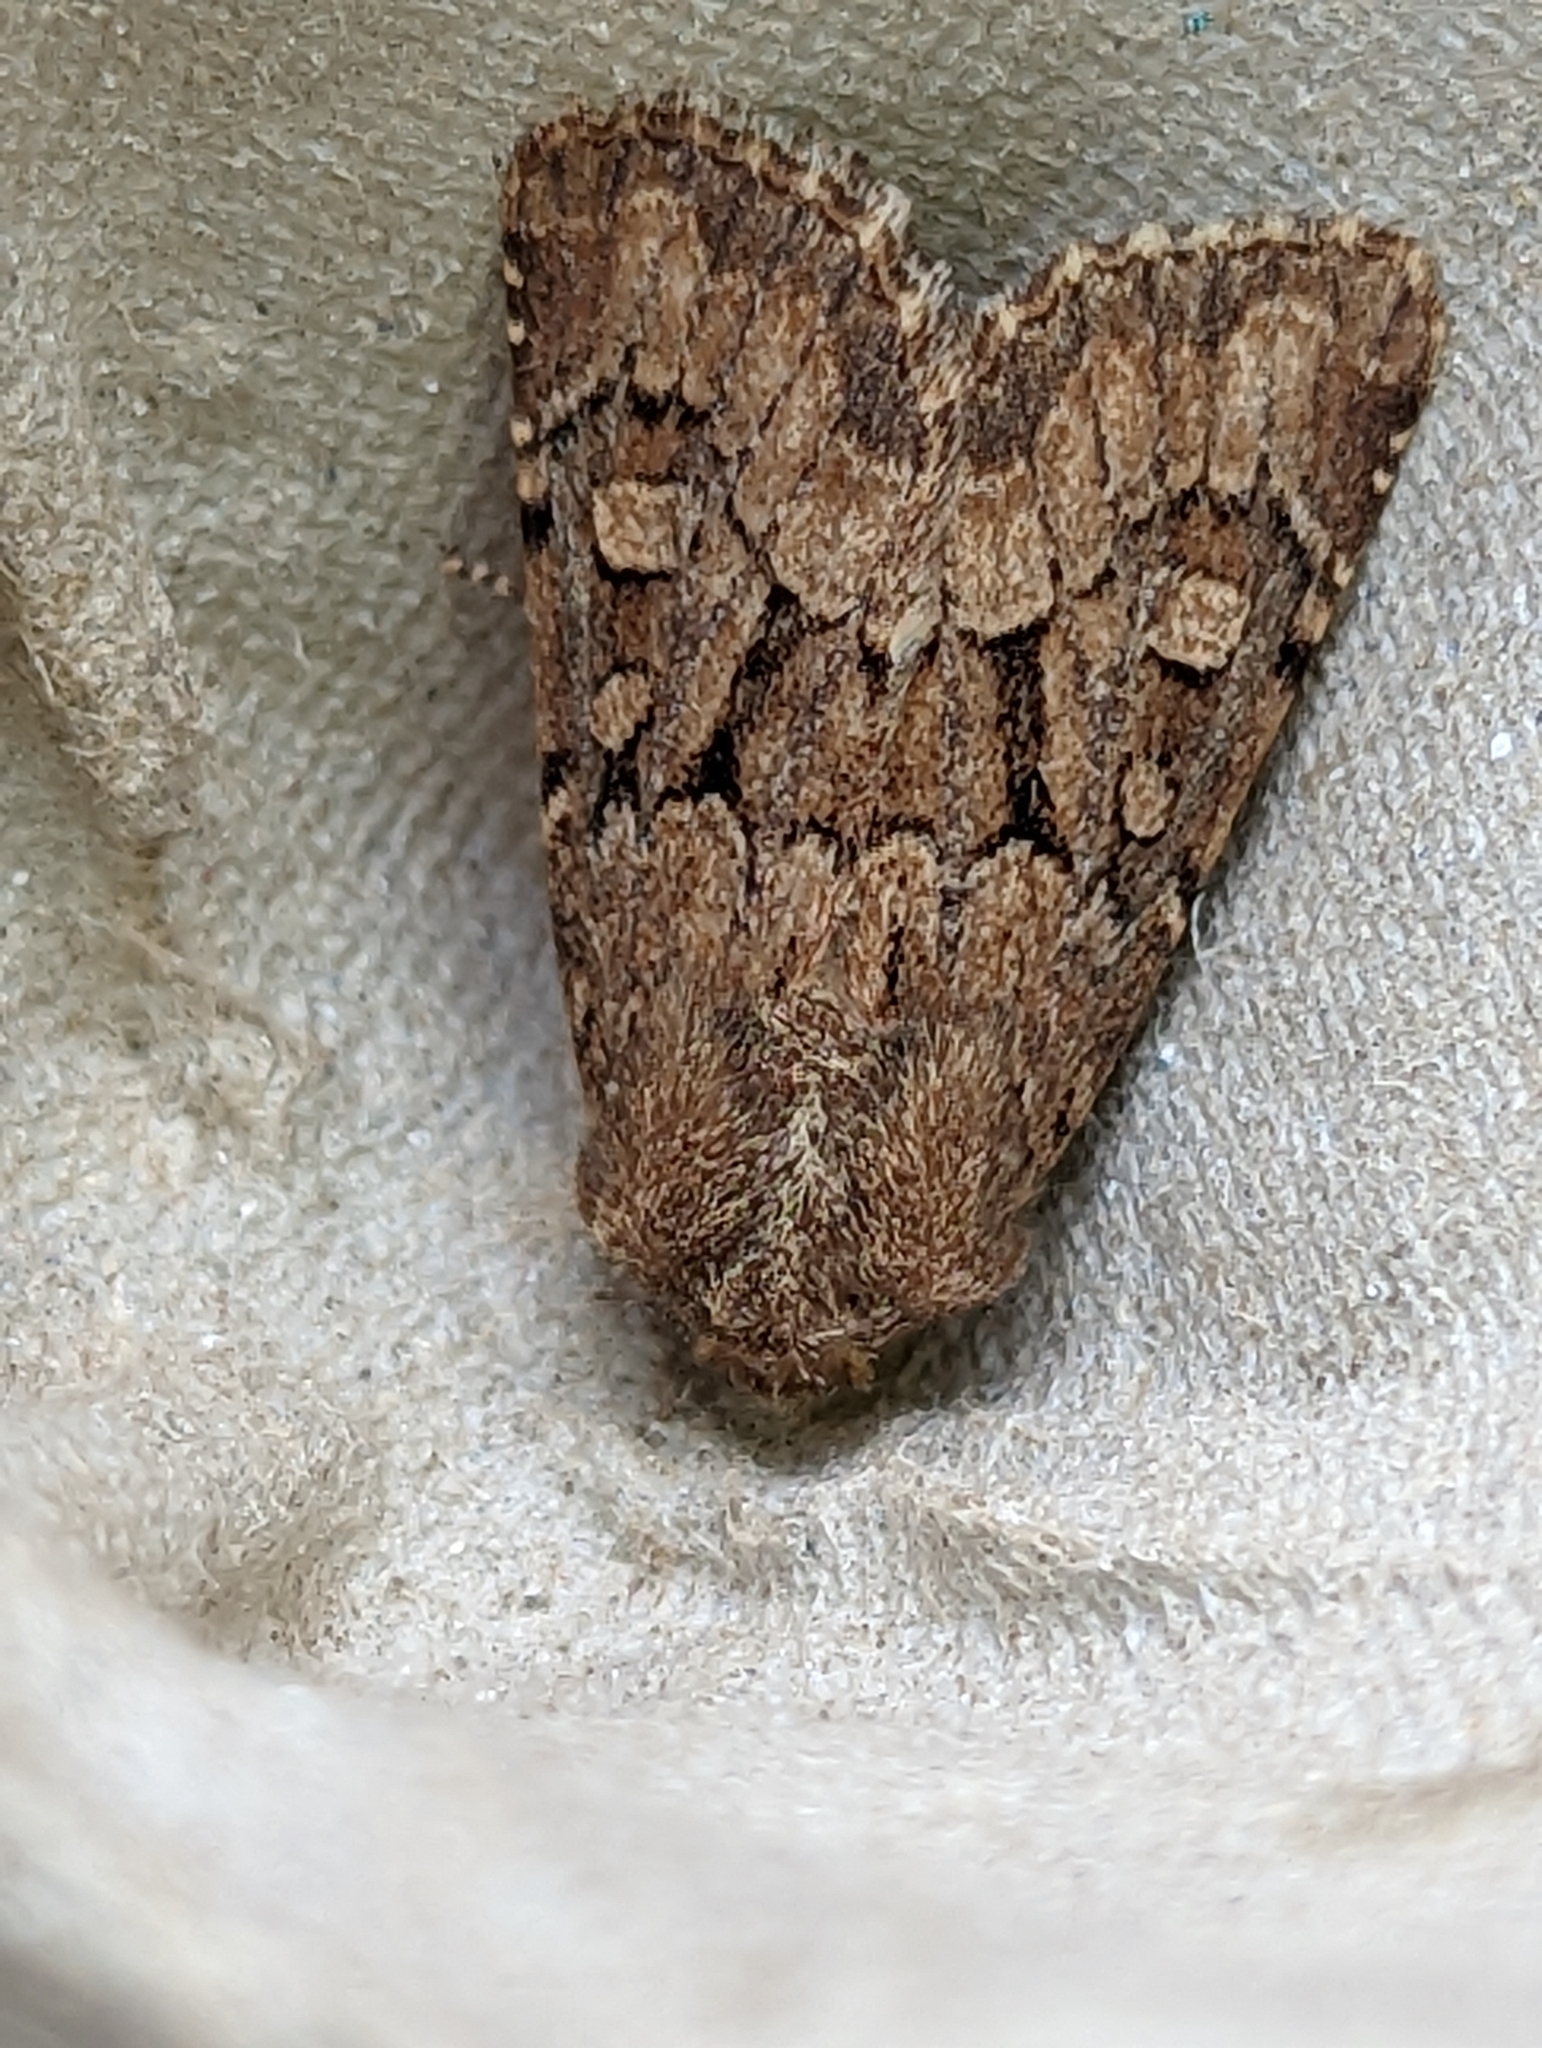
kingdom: Animalia
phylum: Arthropoda
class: Insecta
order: Lepidoptera
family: Noctuidae
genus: Luperina
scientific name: Luperina testacea
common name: Flounced rustic
